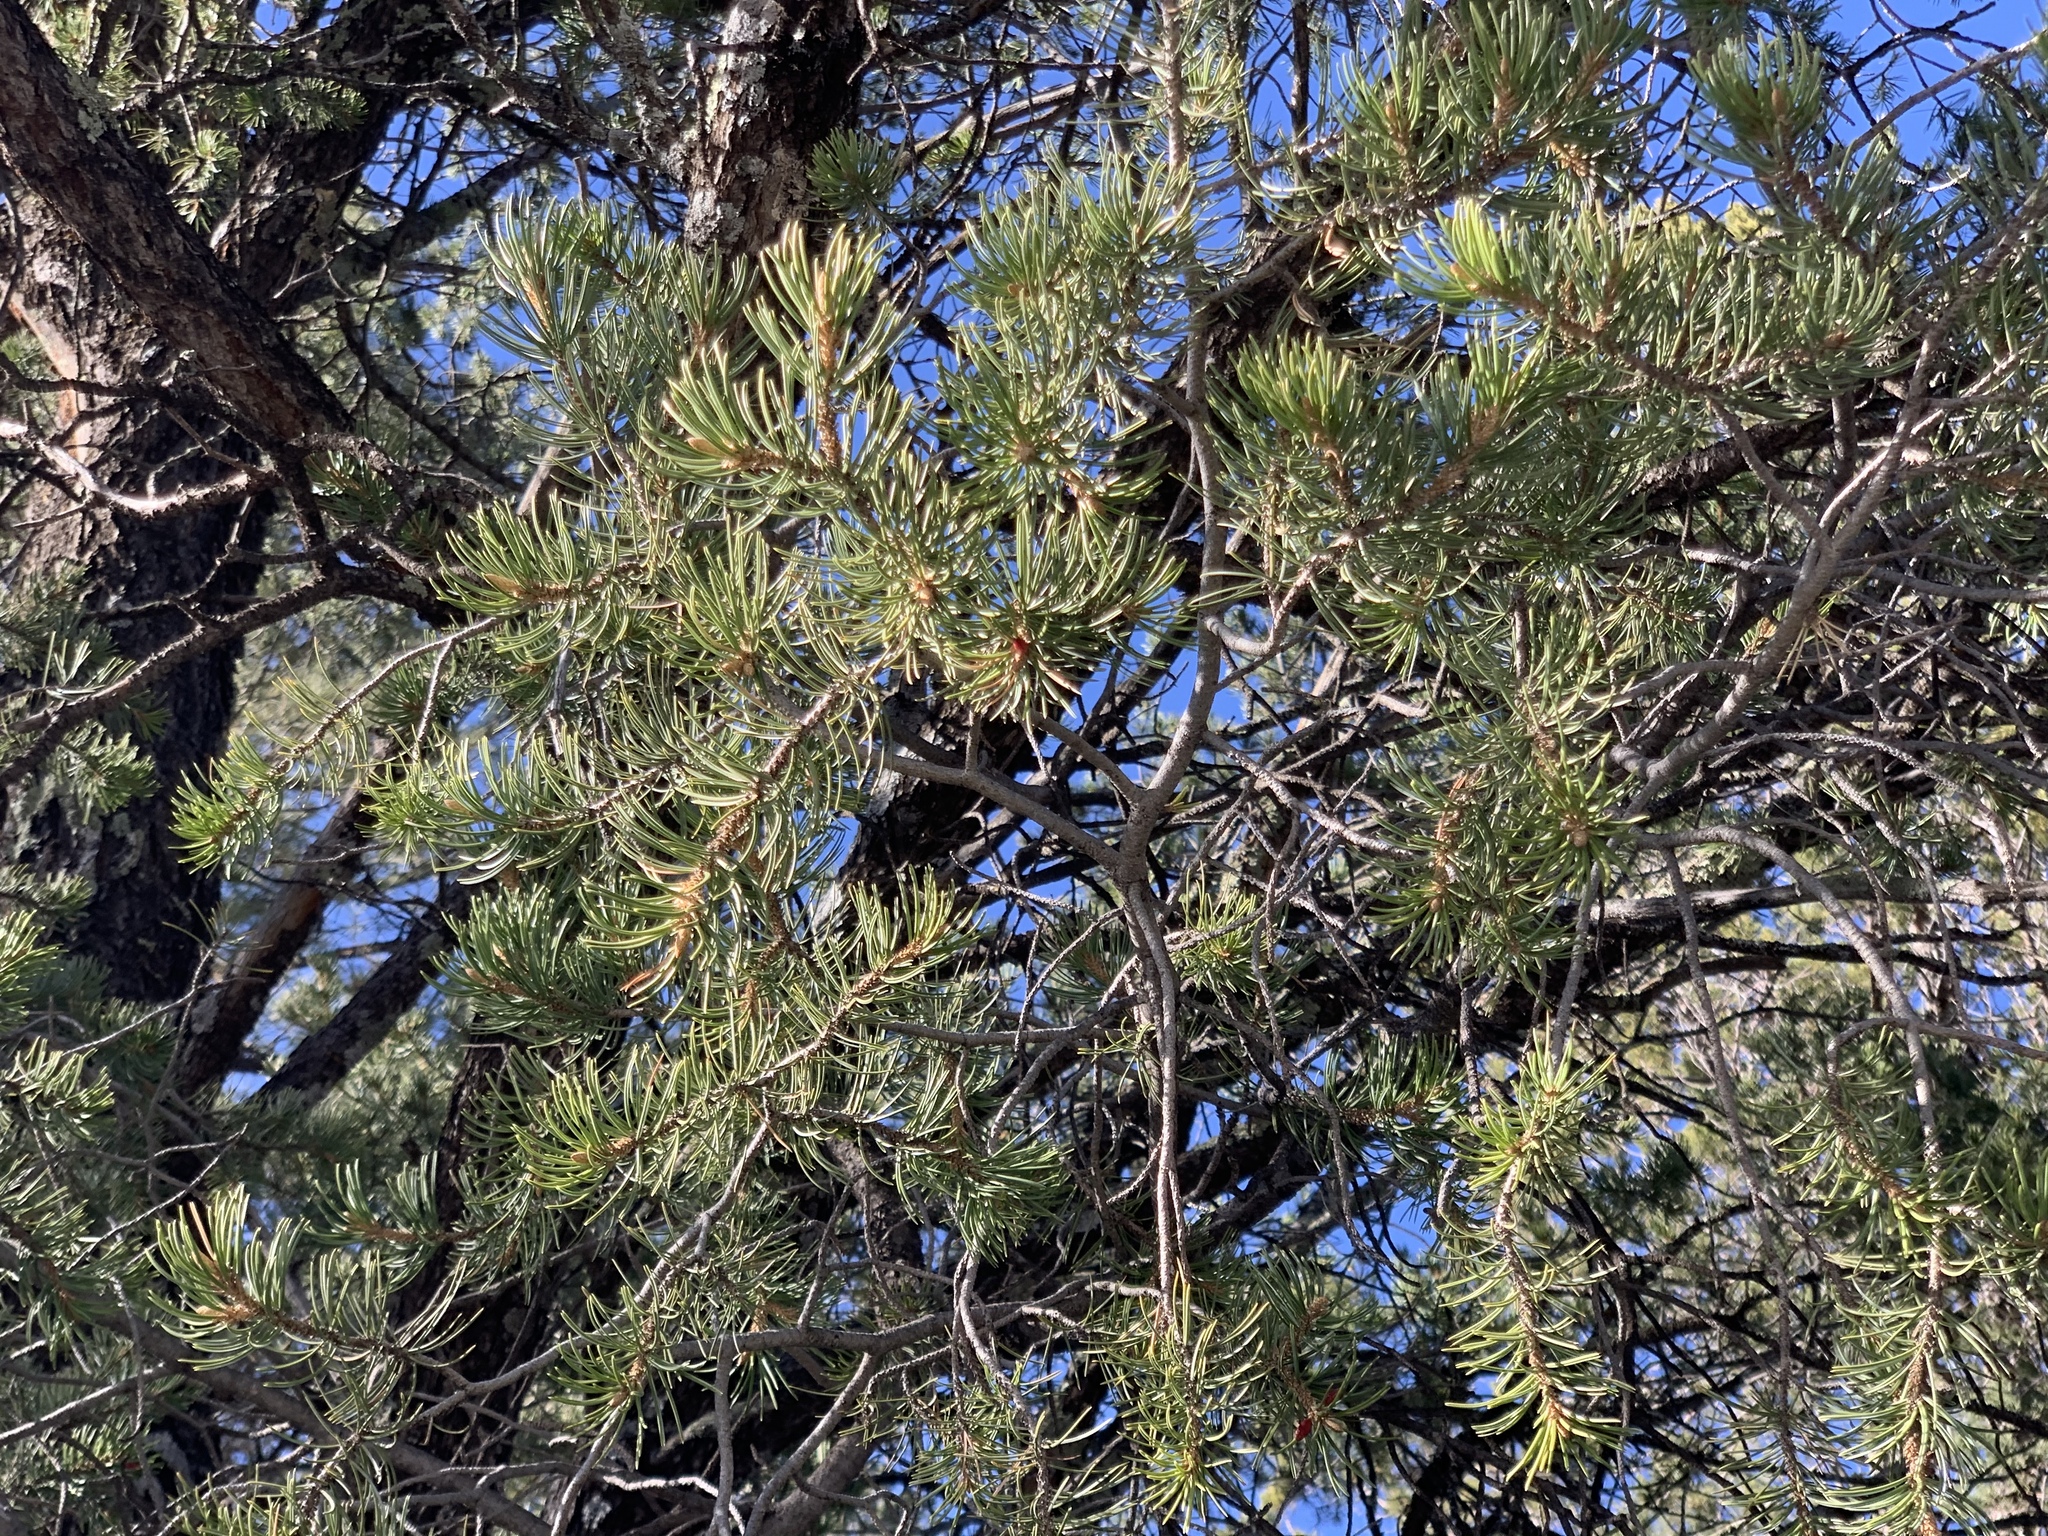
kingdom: Plantae
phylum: Tracheophyta
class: Pinopsida
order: Pinales
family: Pinaceae
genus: Pinus
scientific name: Pinus edulis
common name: Colorado pinyon
